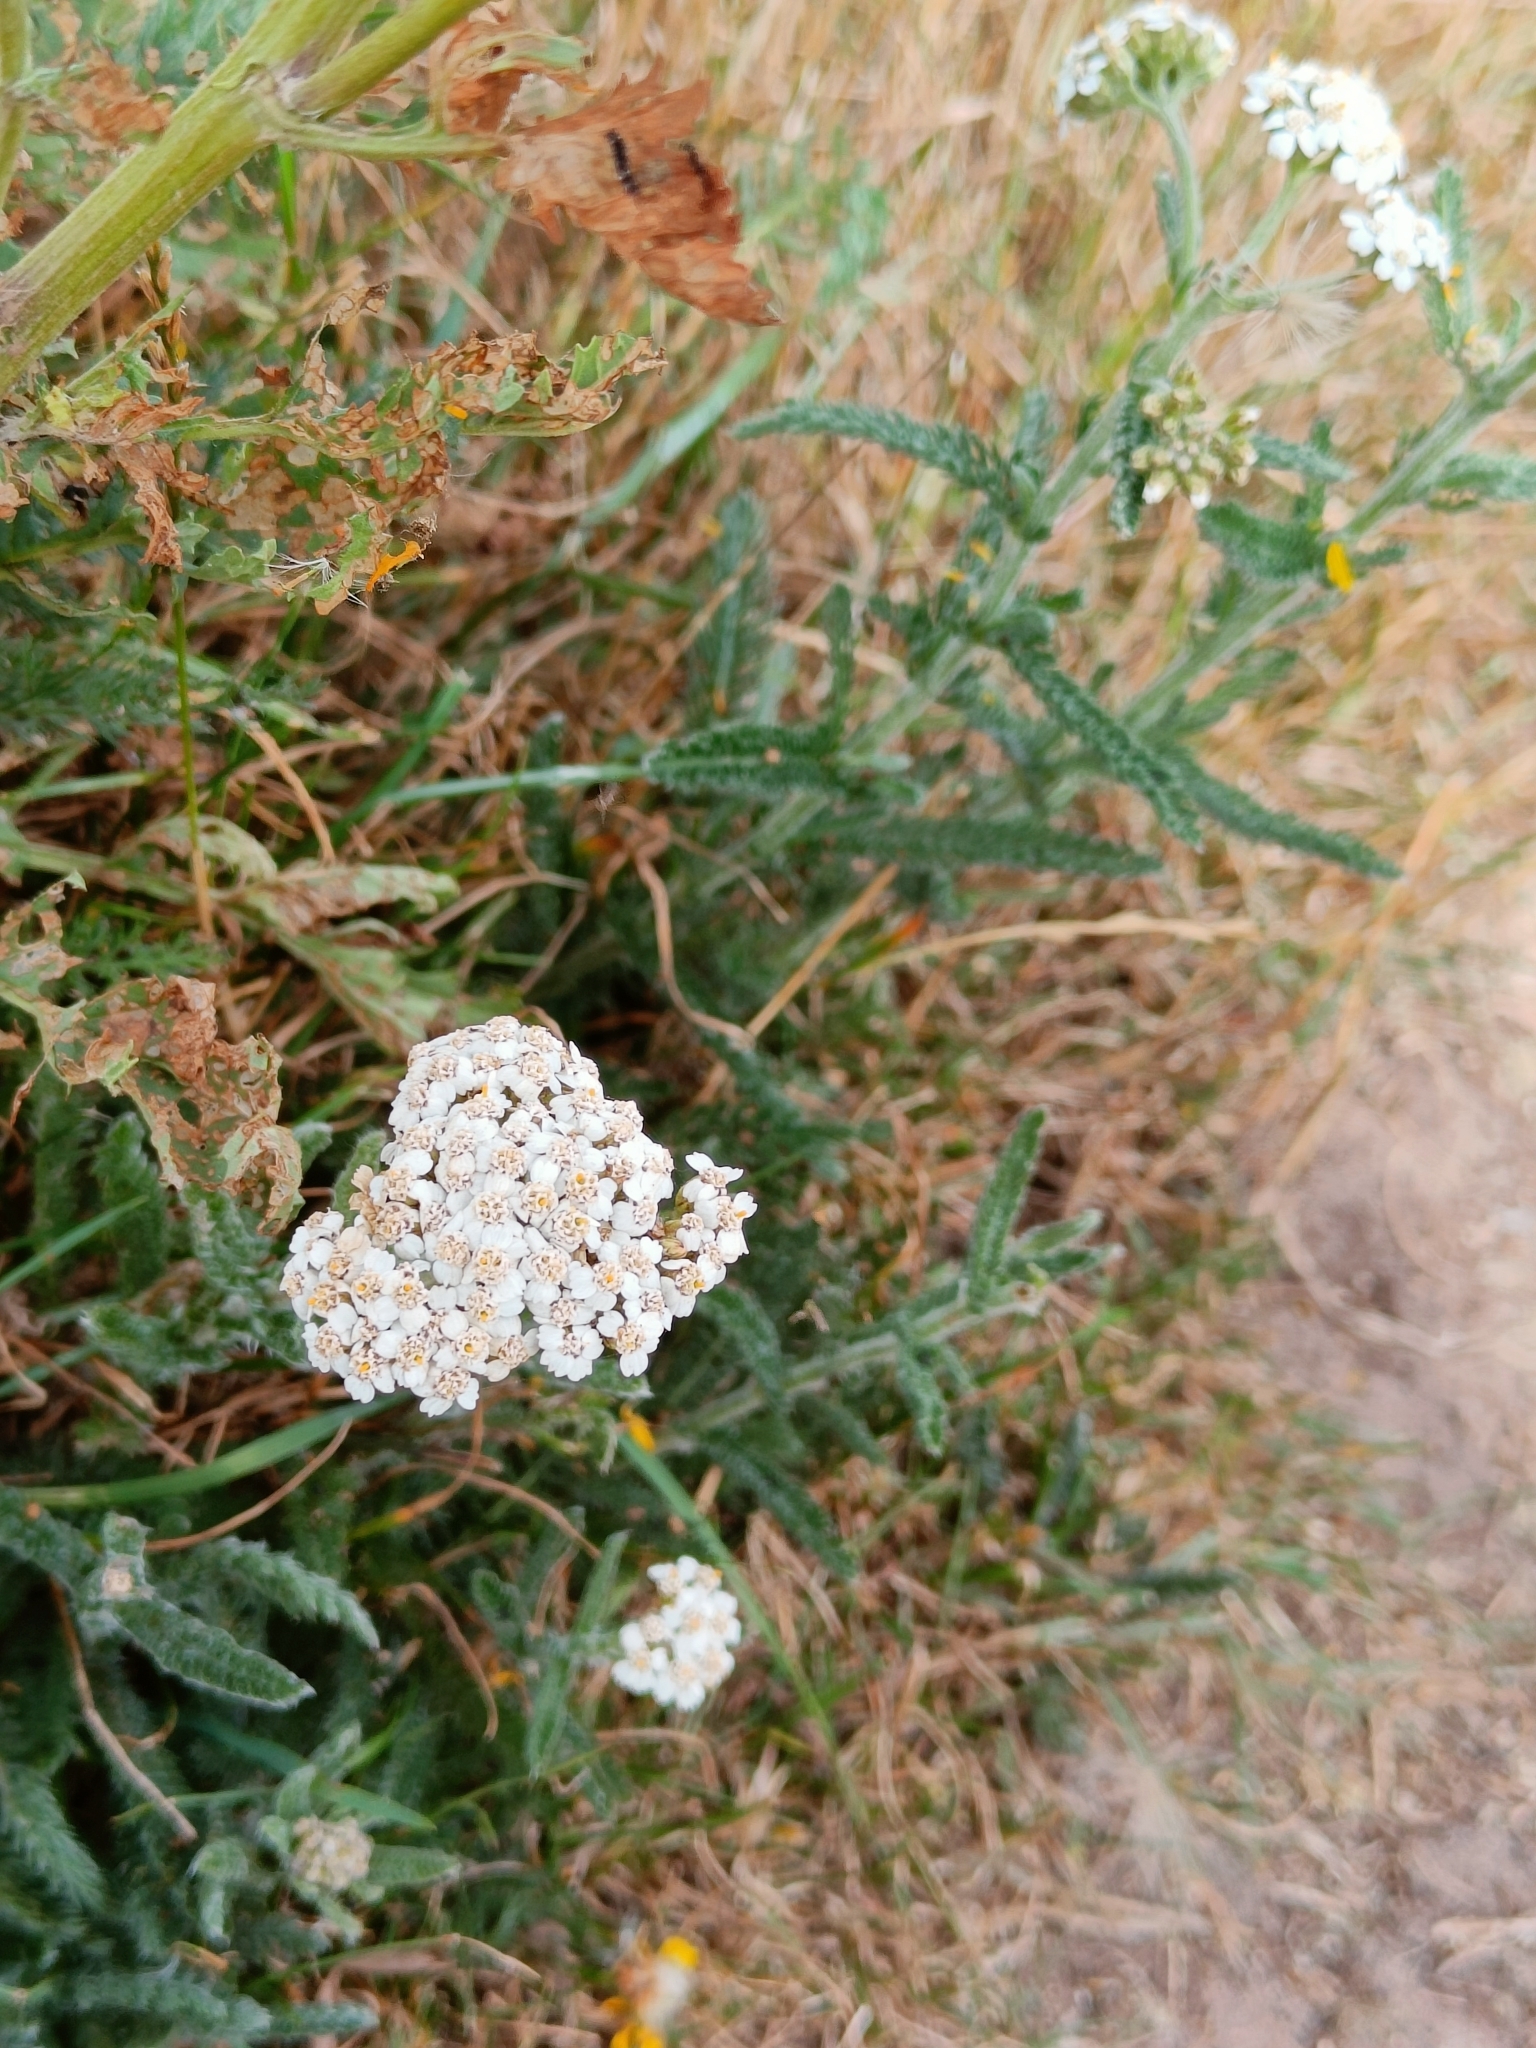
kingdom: Plantae
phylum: Tracheophyta
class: Magnoliopsida
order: Asterales
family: Asteraceae
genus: Achillea
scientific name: Achillea millefolium
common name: Yarrow
